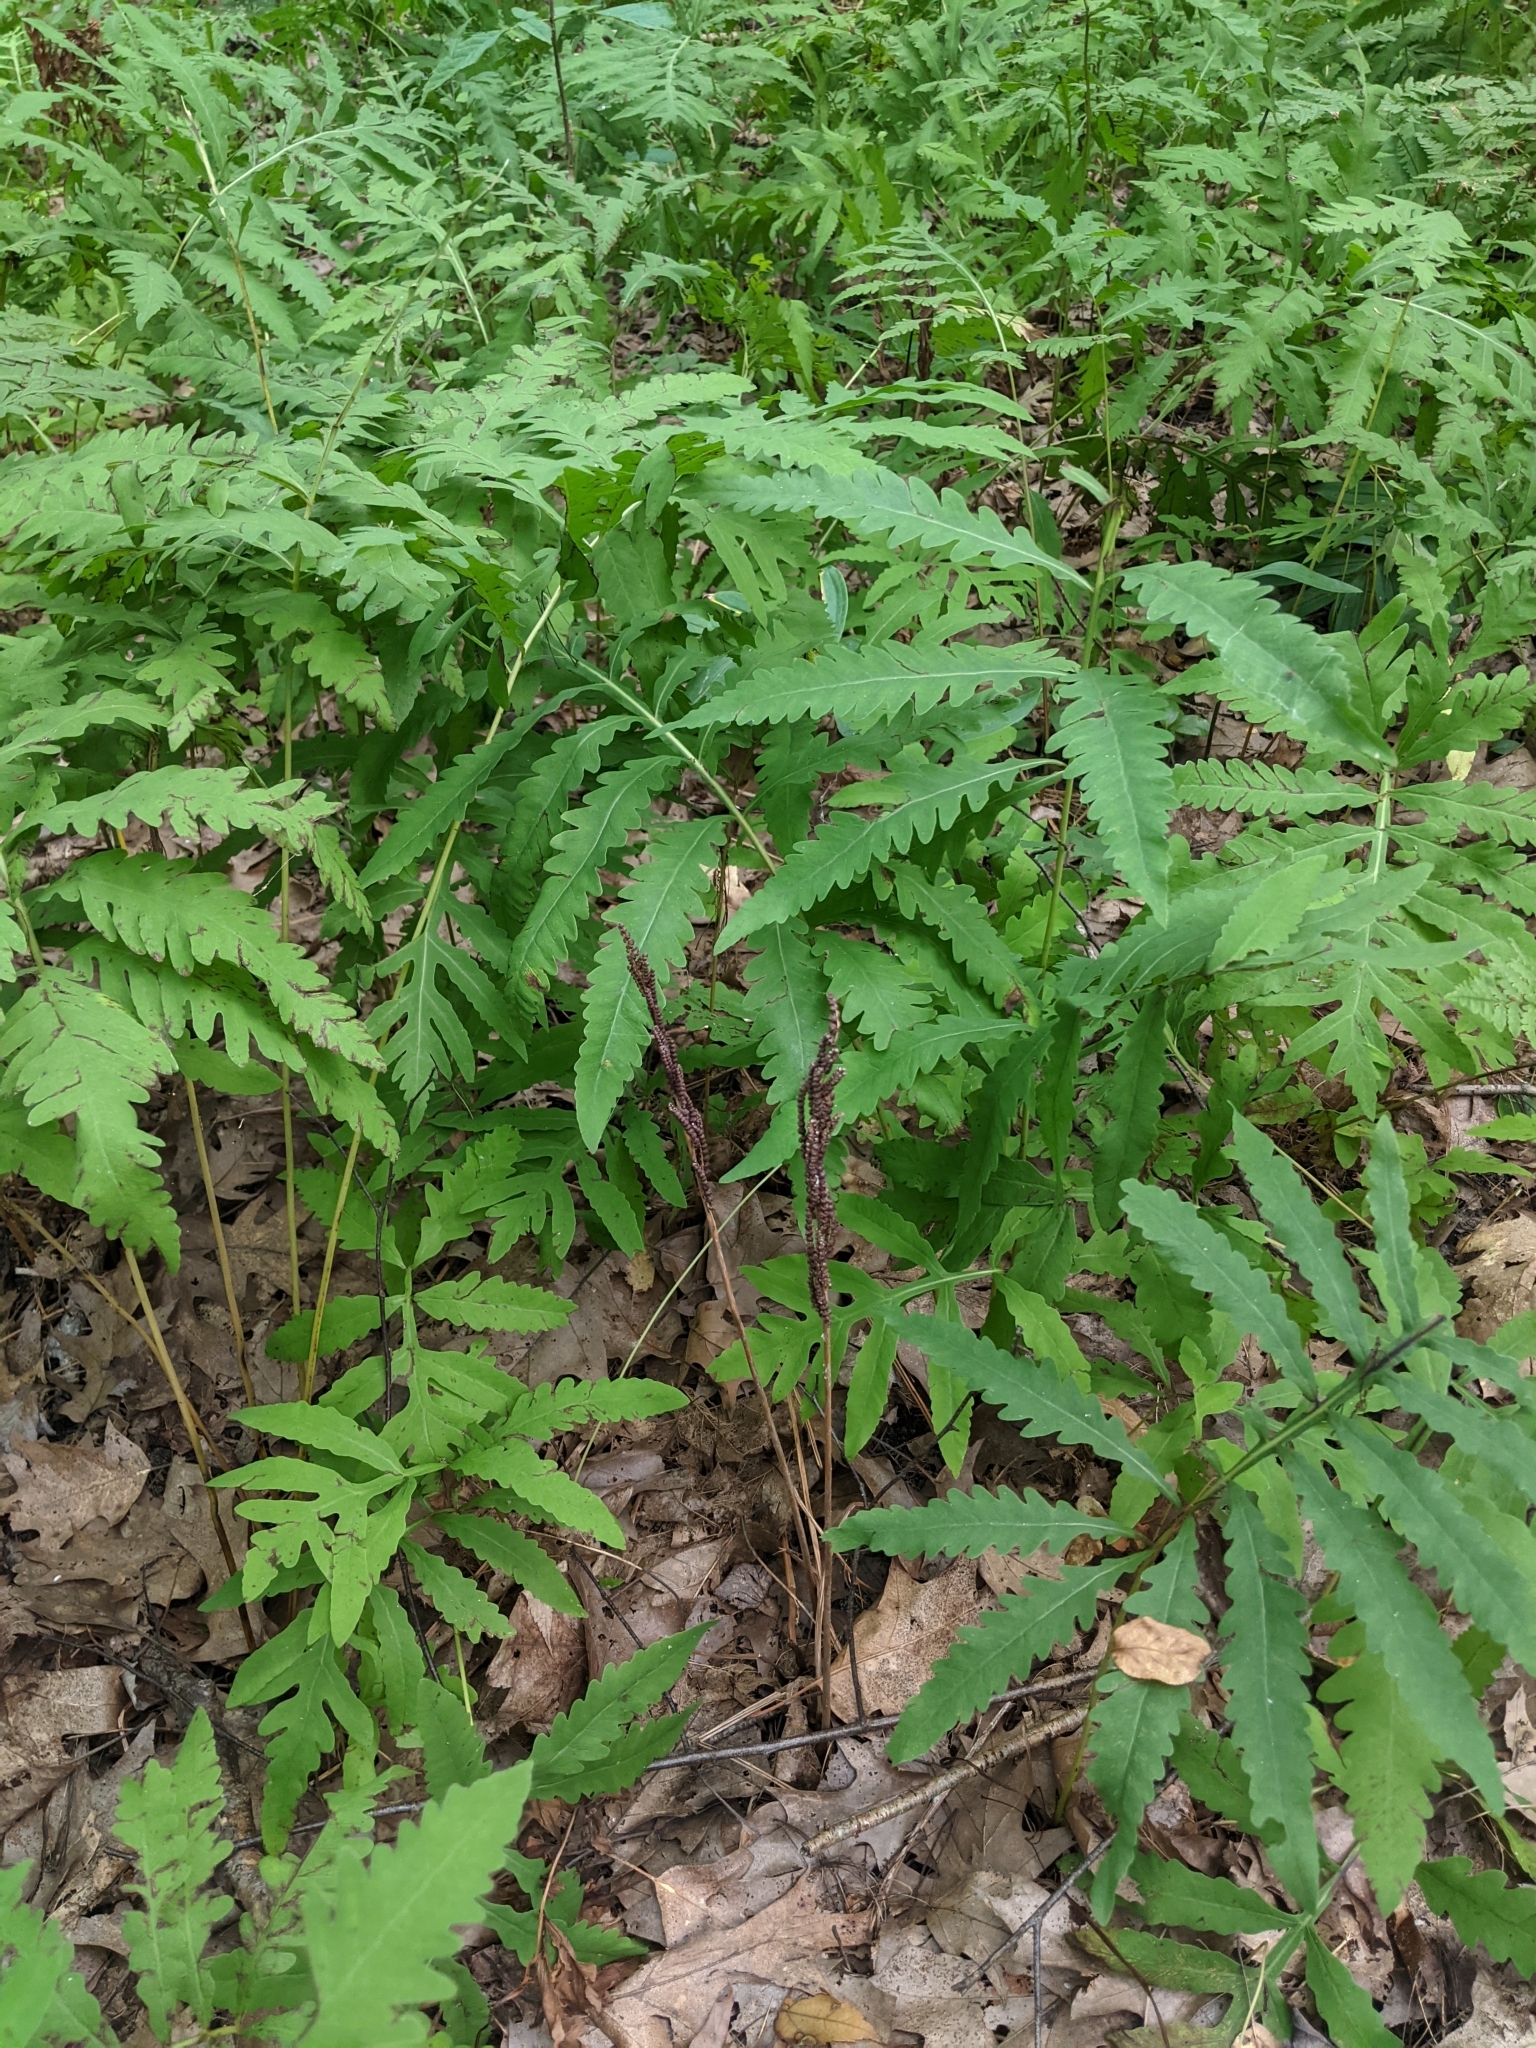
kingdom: Plantae
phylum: Tracheophyta
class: Polypodiopsida
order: Polypodiales
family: Onocleaceae
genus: Onoclea
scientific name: Onoclea sensibilis
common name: Sensitive fern
